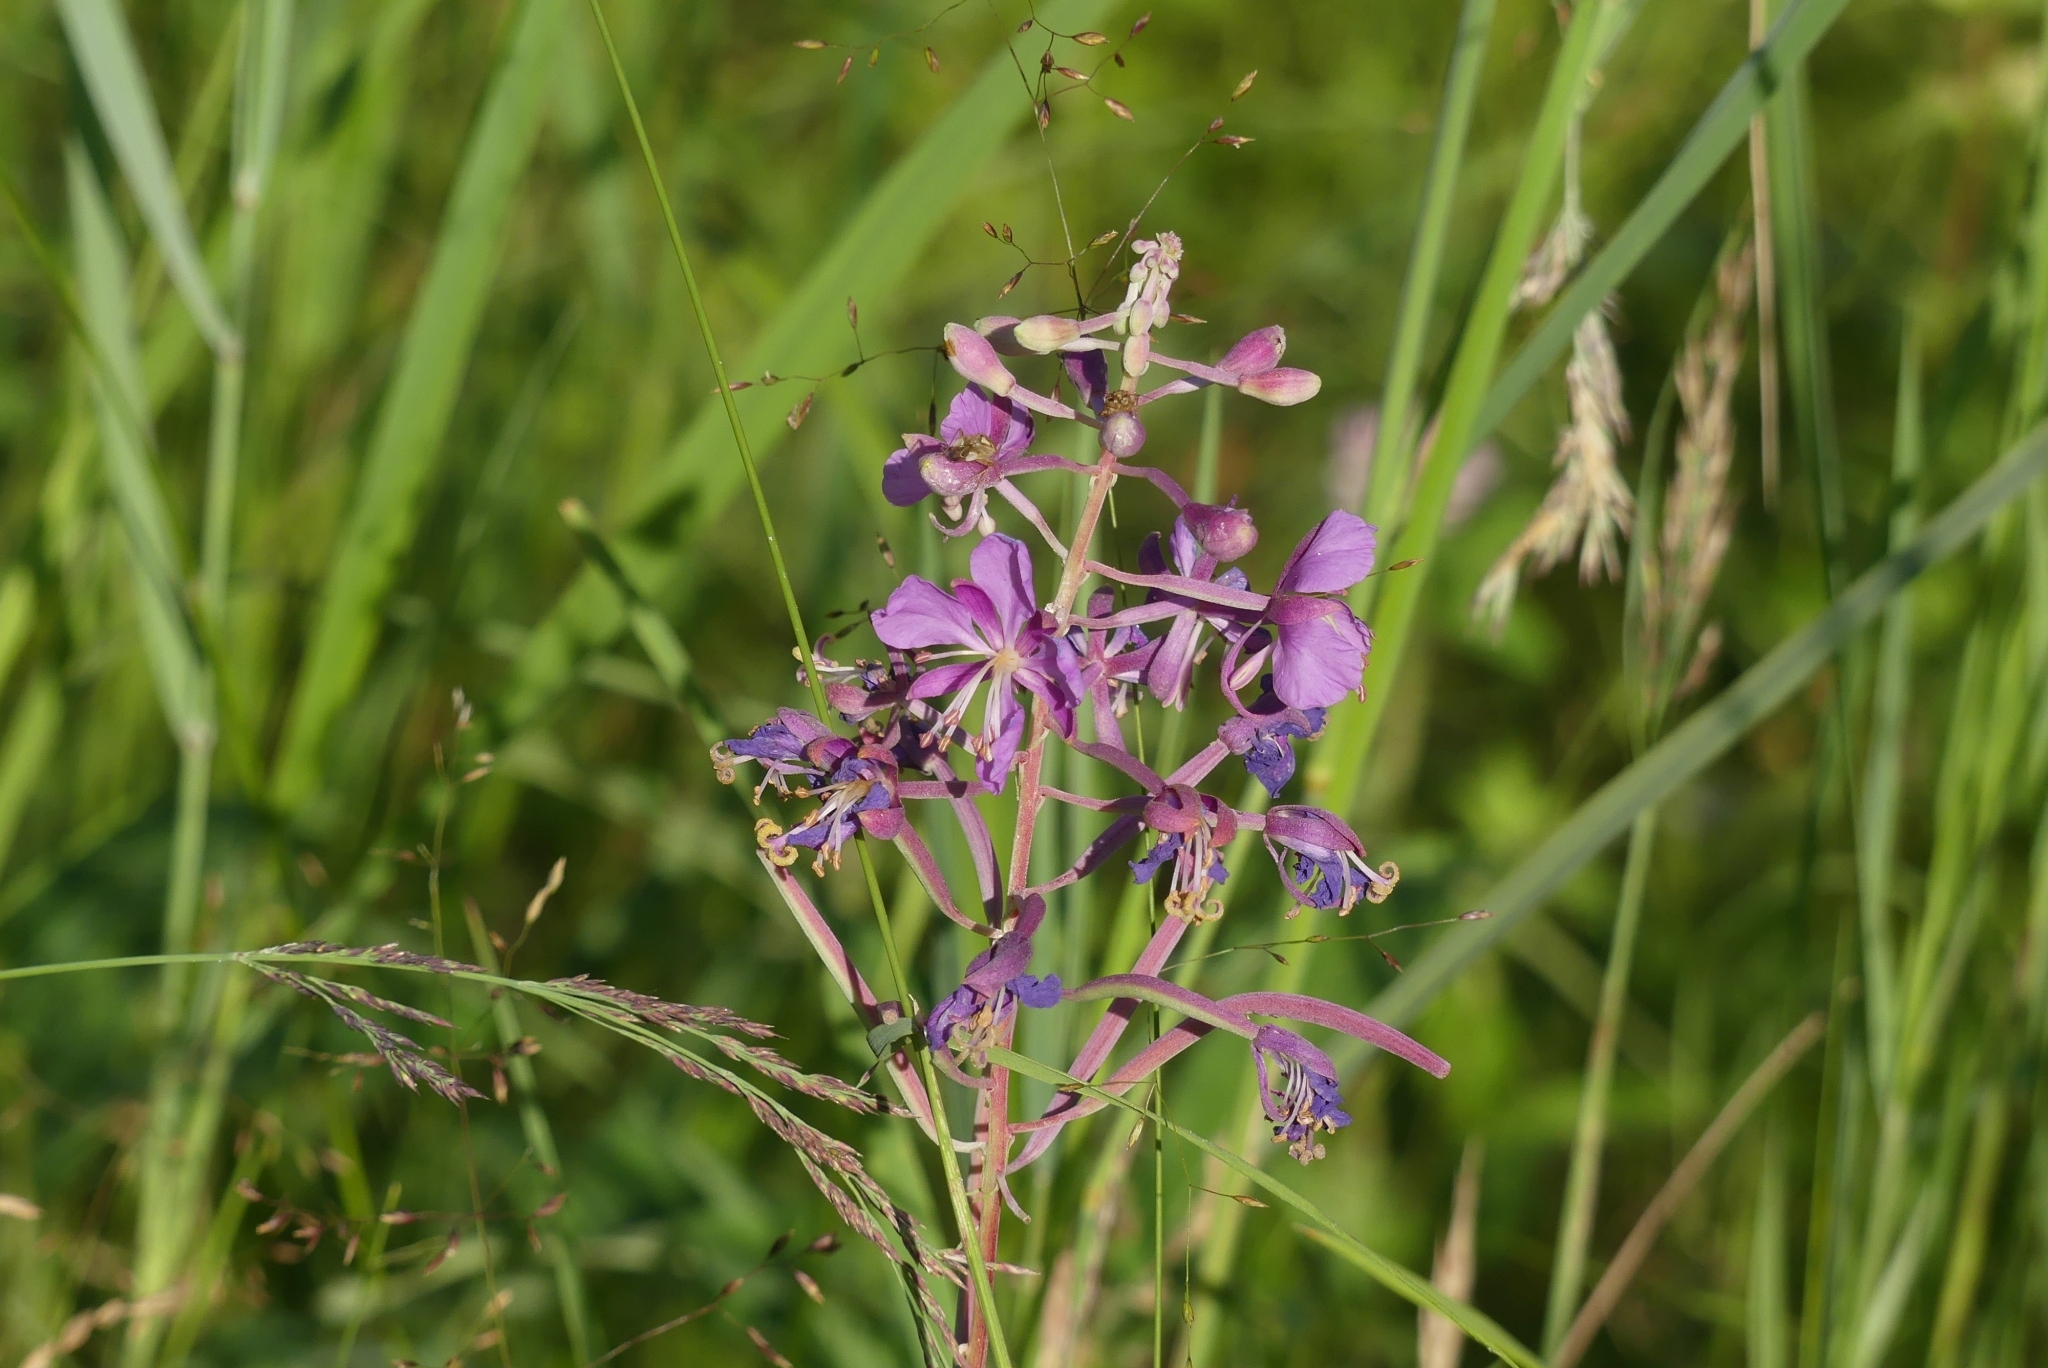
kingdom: Plantae
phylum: Tracheophyta
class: Magnoliopsida
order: Myrtales
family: Onagraceae
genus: Chamaenerion
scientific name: Chamaenerion angustifolium
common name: Fireweed
